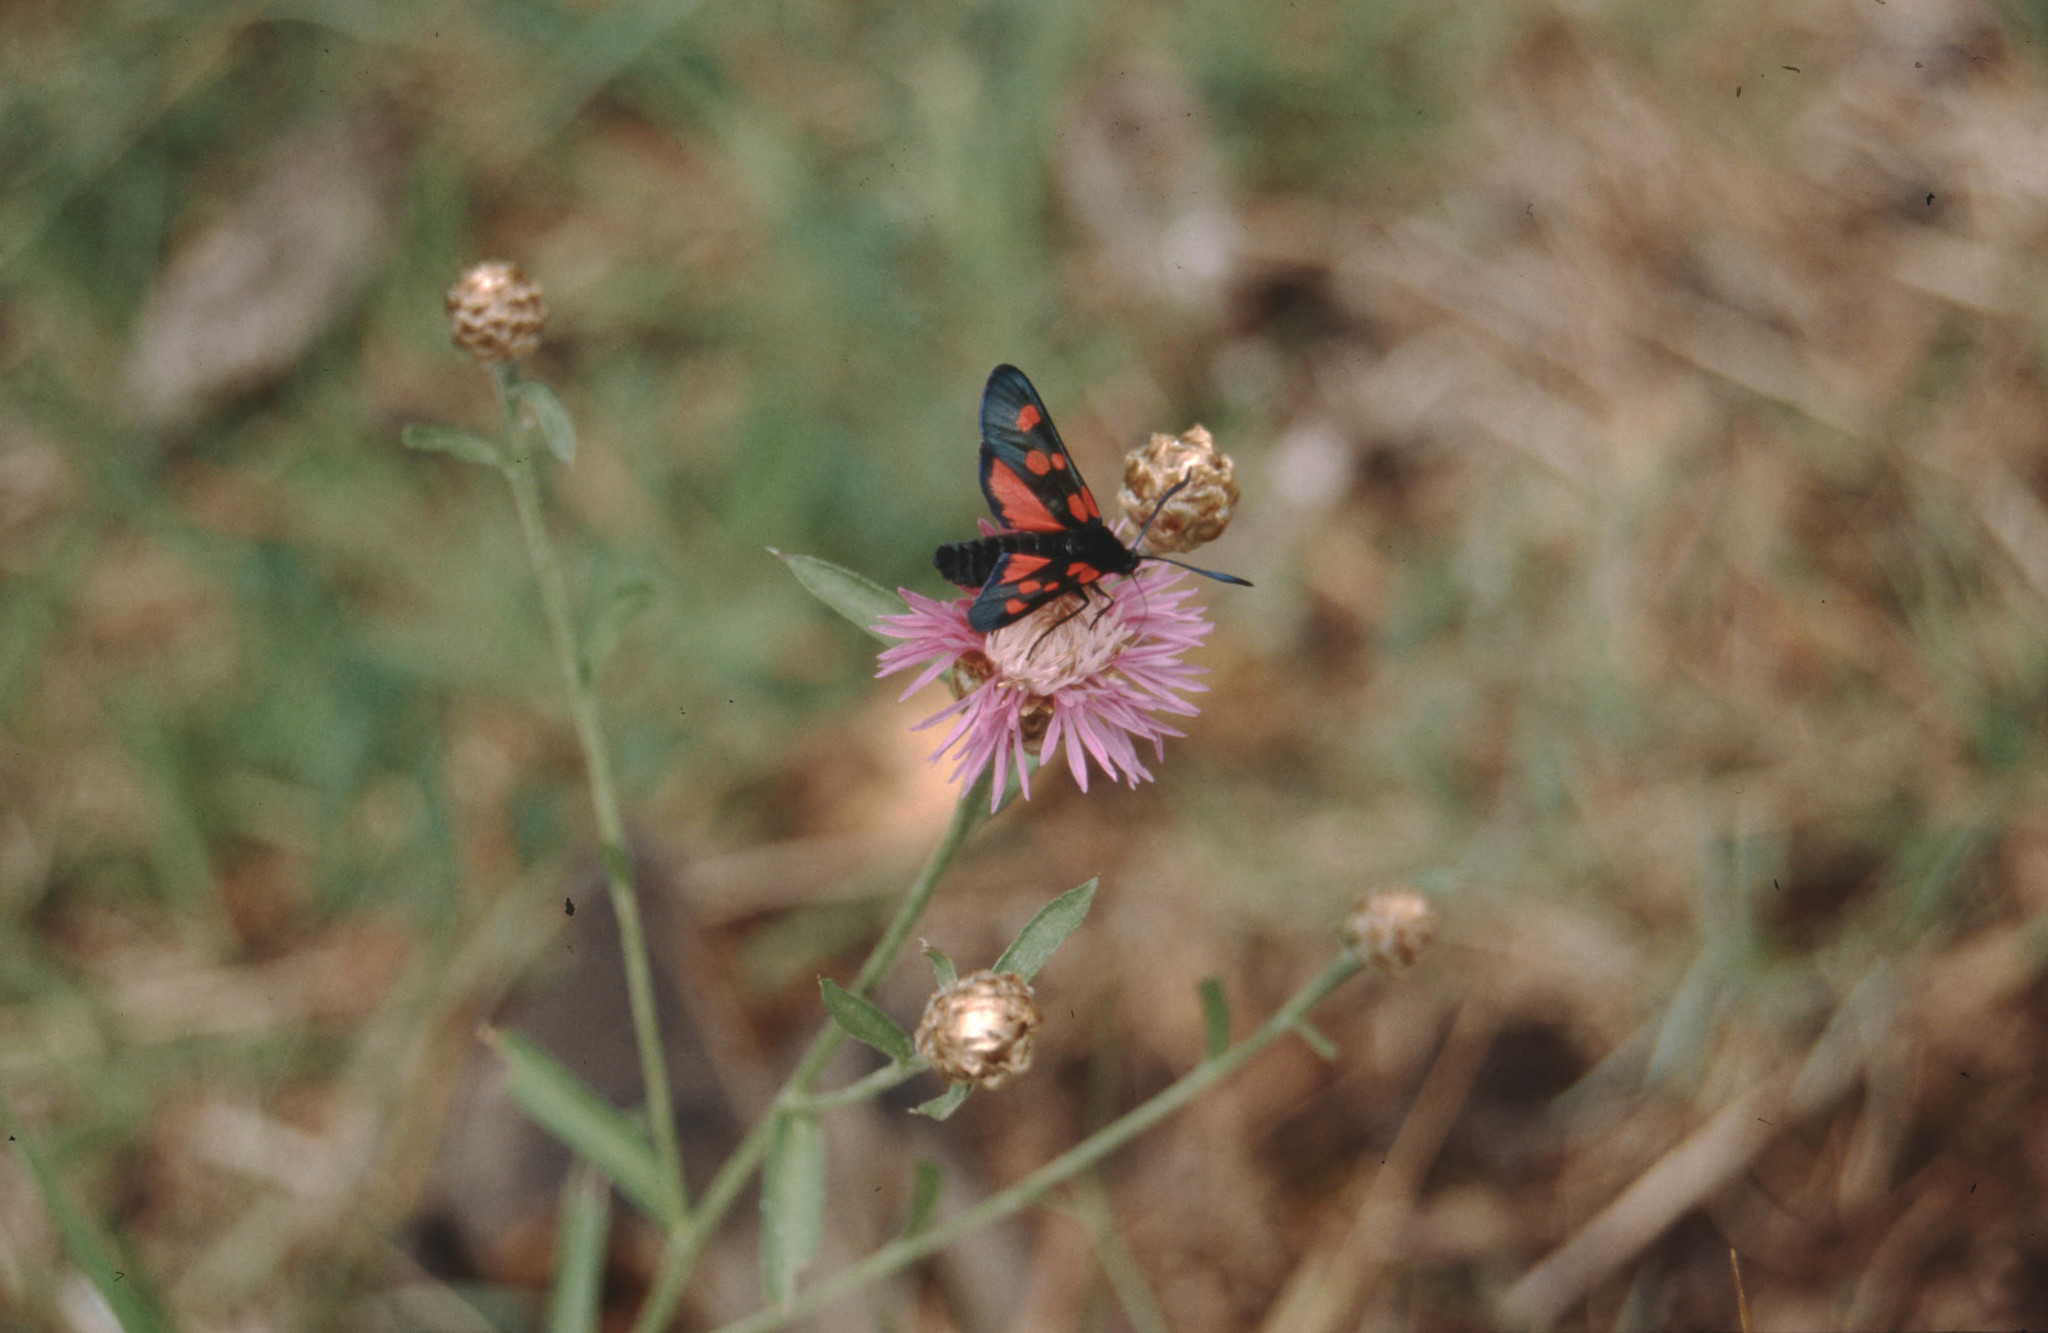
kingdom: Animalia
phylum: Arthropoda
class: Insecta
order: Lepidoptera
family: Zygaenidae
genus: Zygaena
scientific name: Zygaena filipendulae
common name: Six-spot burnet
